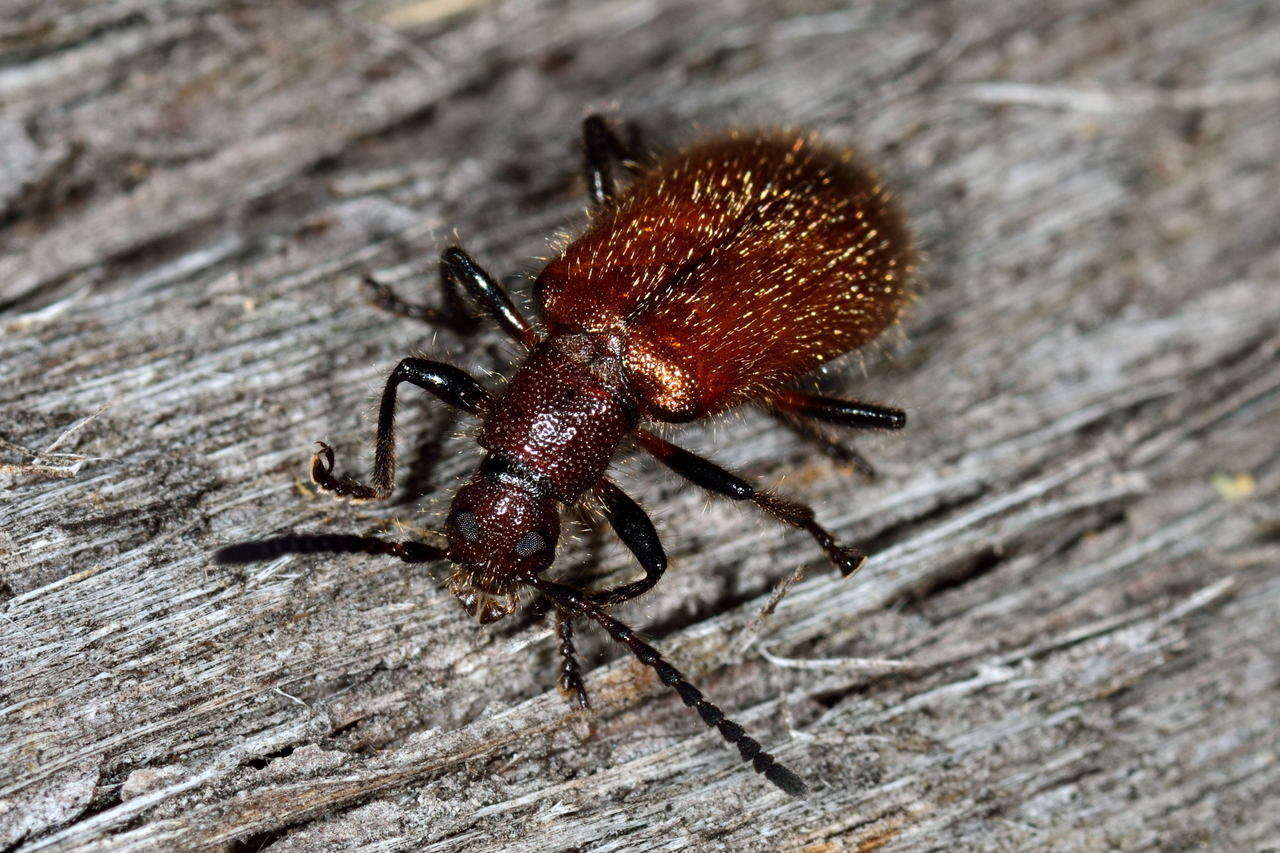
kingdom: Animalia
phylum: Arthropoda
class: Insecta
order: Coleoptera
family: Tenebrionidae
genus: Metriolagria
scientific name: Metriolagria affinis
